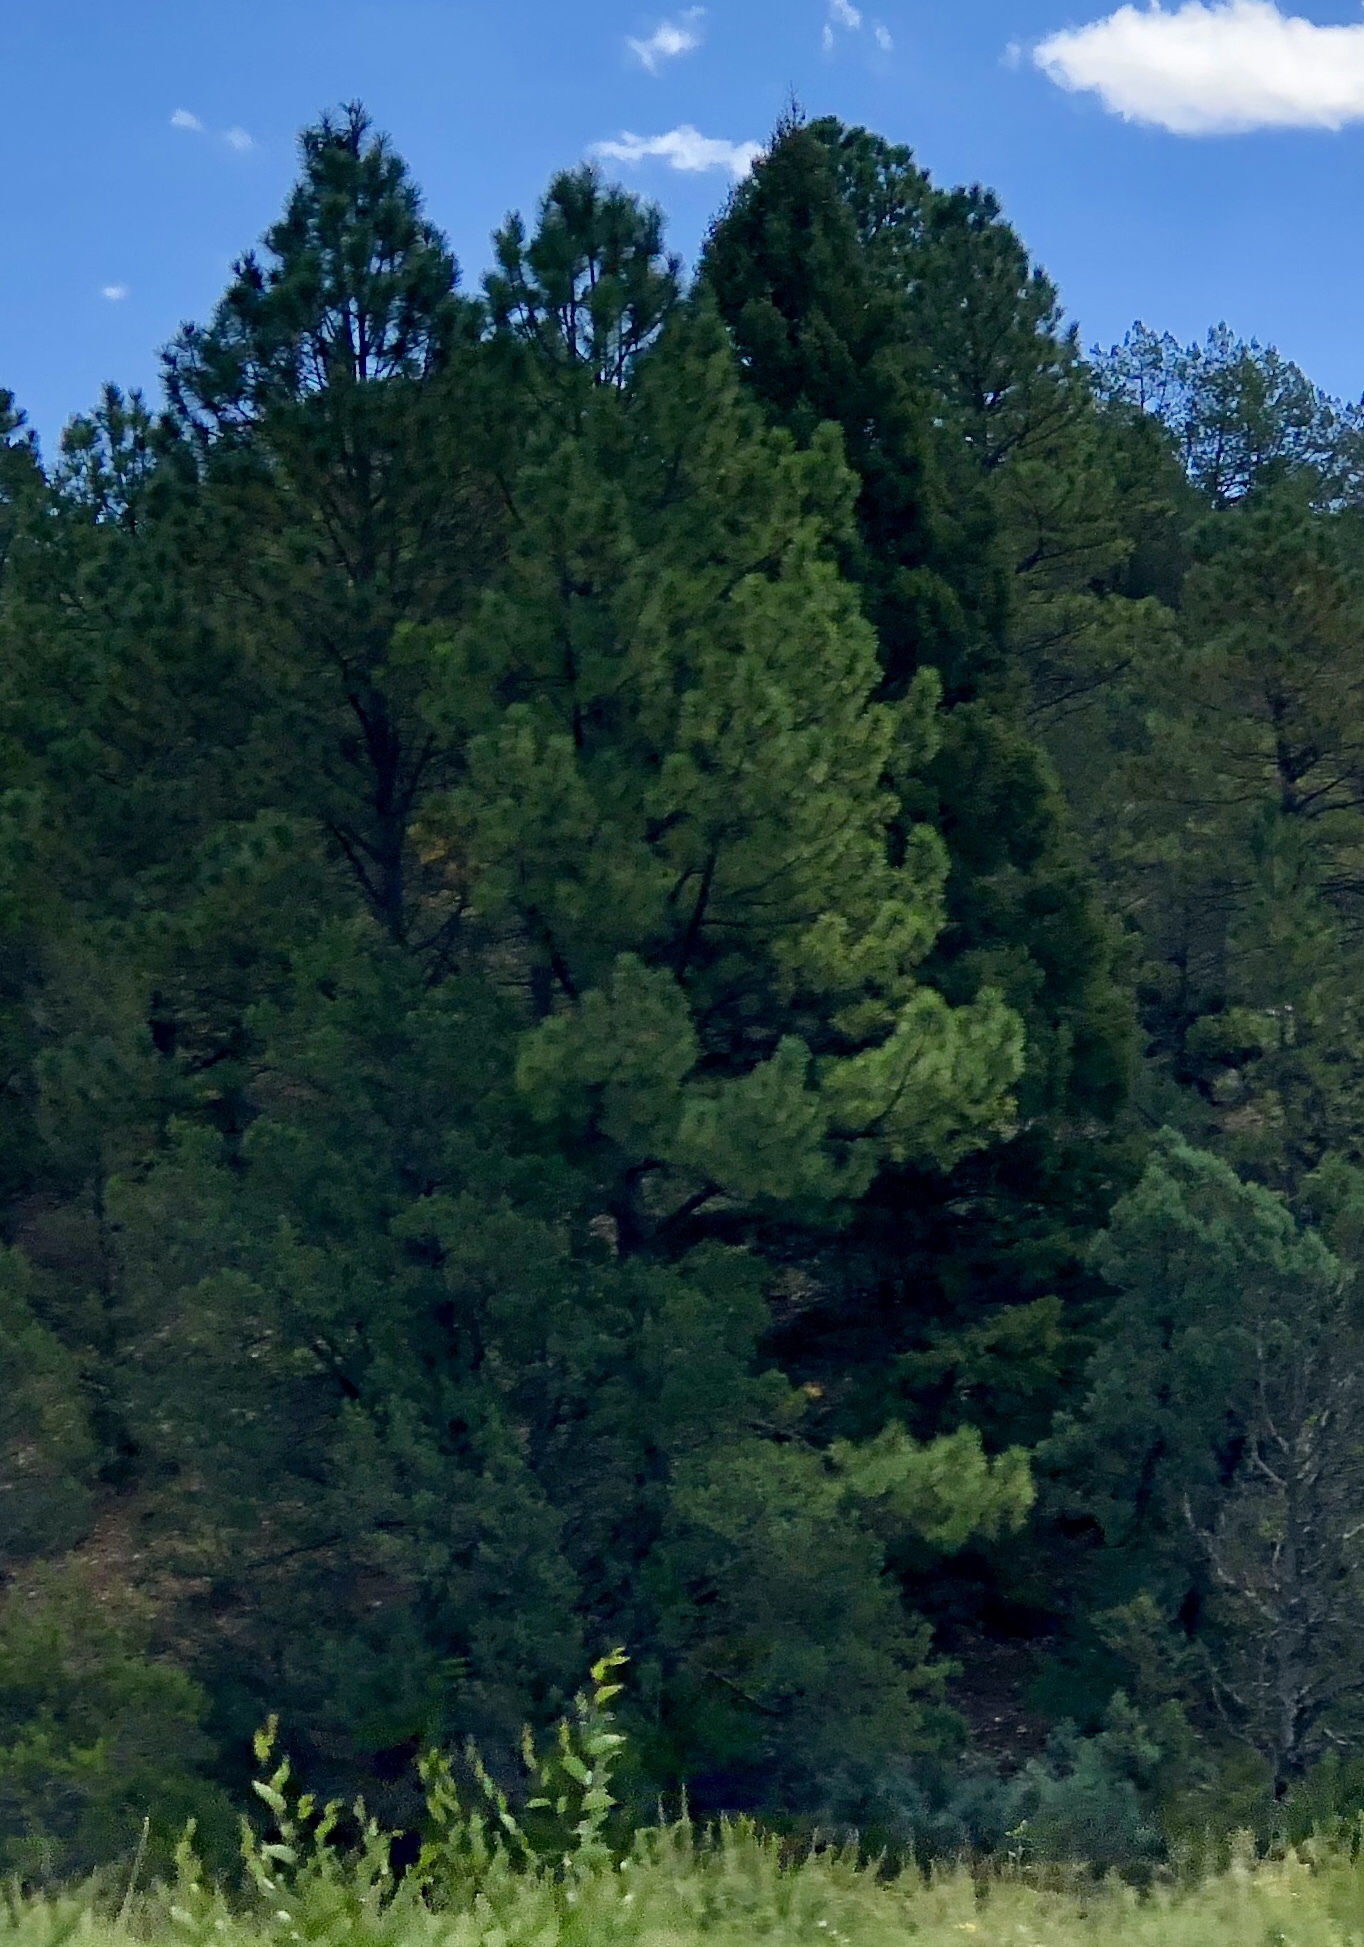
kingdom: Plantae
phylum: Tracheophyta
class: Pinopsida
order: Pinales
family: Pinaceae
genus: Pinus
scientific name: Pinus ponderosa
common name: Western yellow-pine
